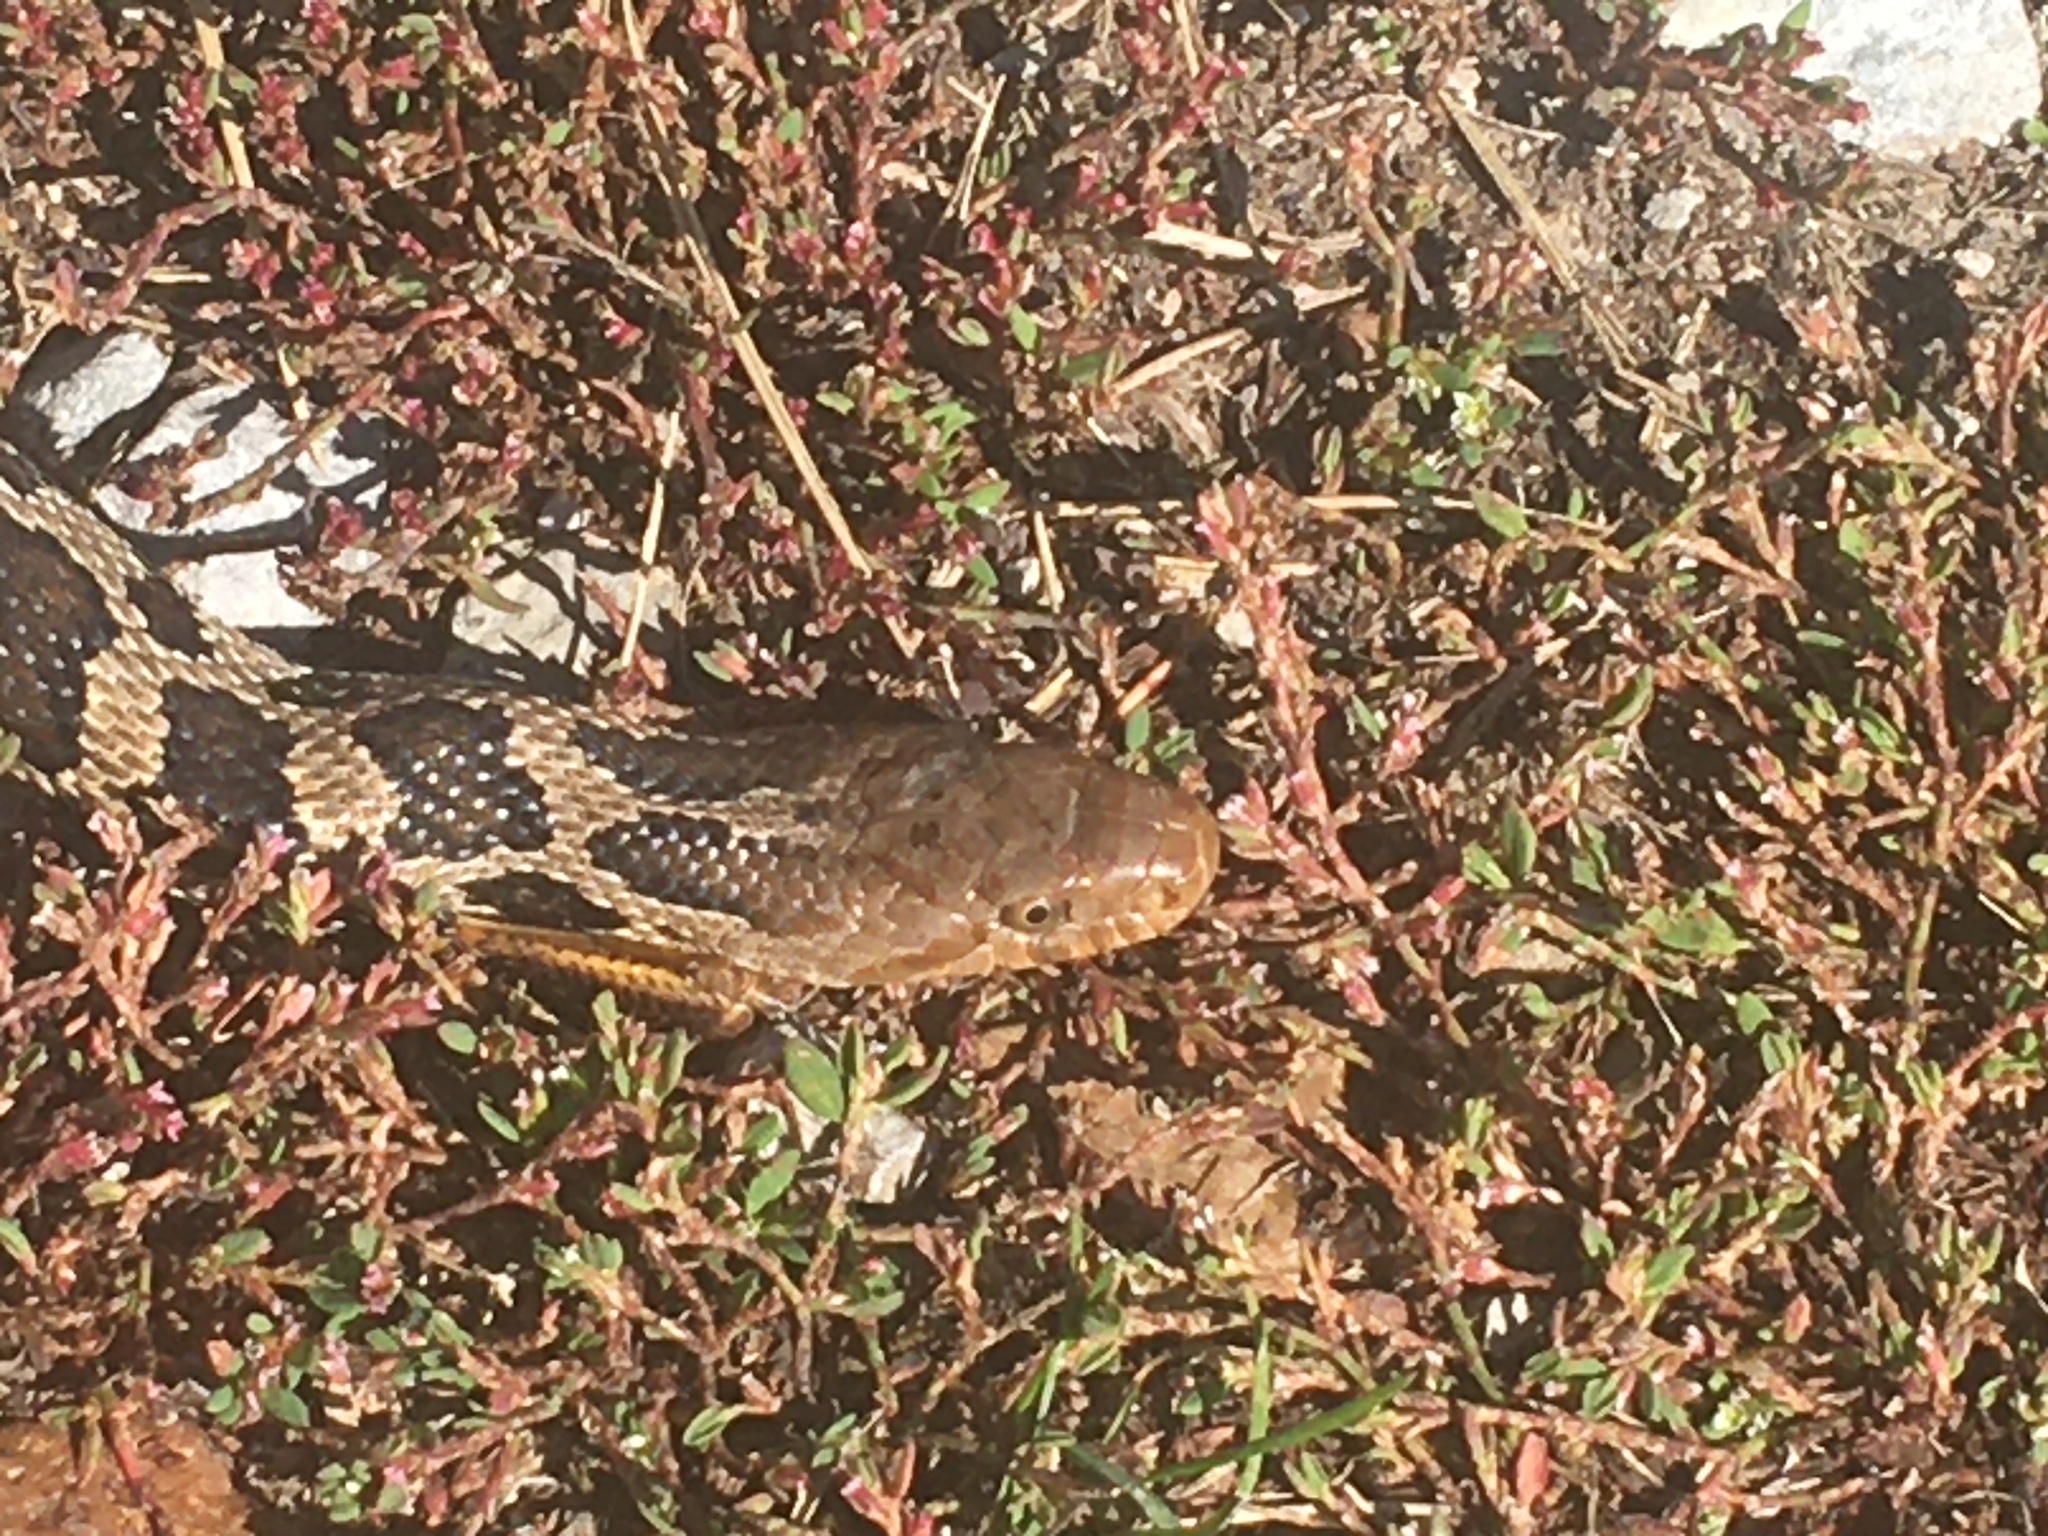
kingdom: Animalia
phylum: Chordata
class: Squamata
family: Colubridae
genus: Pantherophis
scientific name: Pantherophis ramspotti
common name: Western foxsnake
